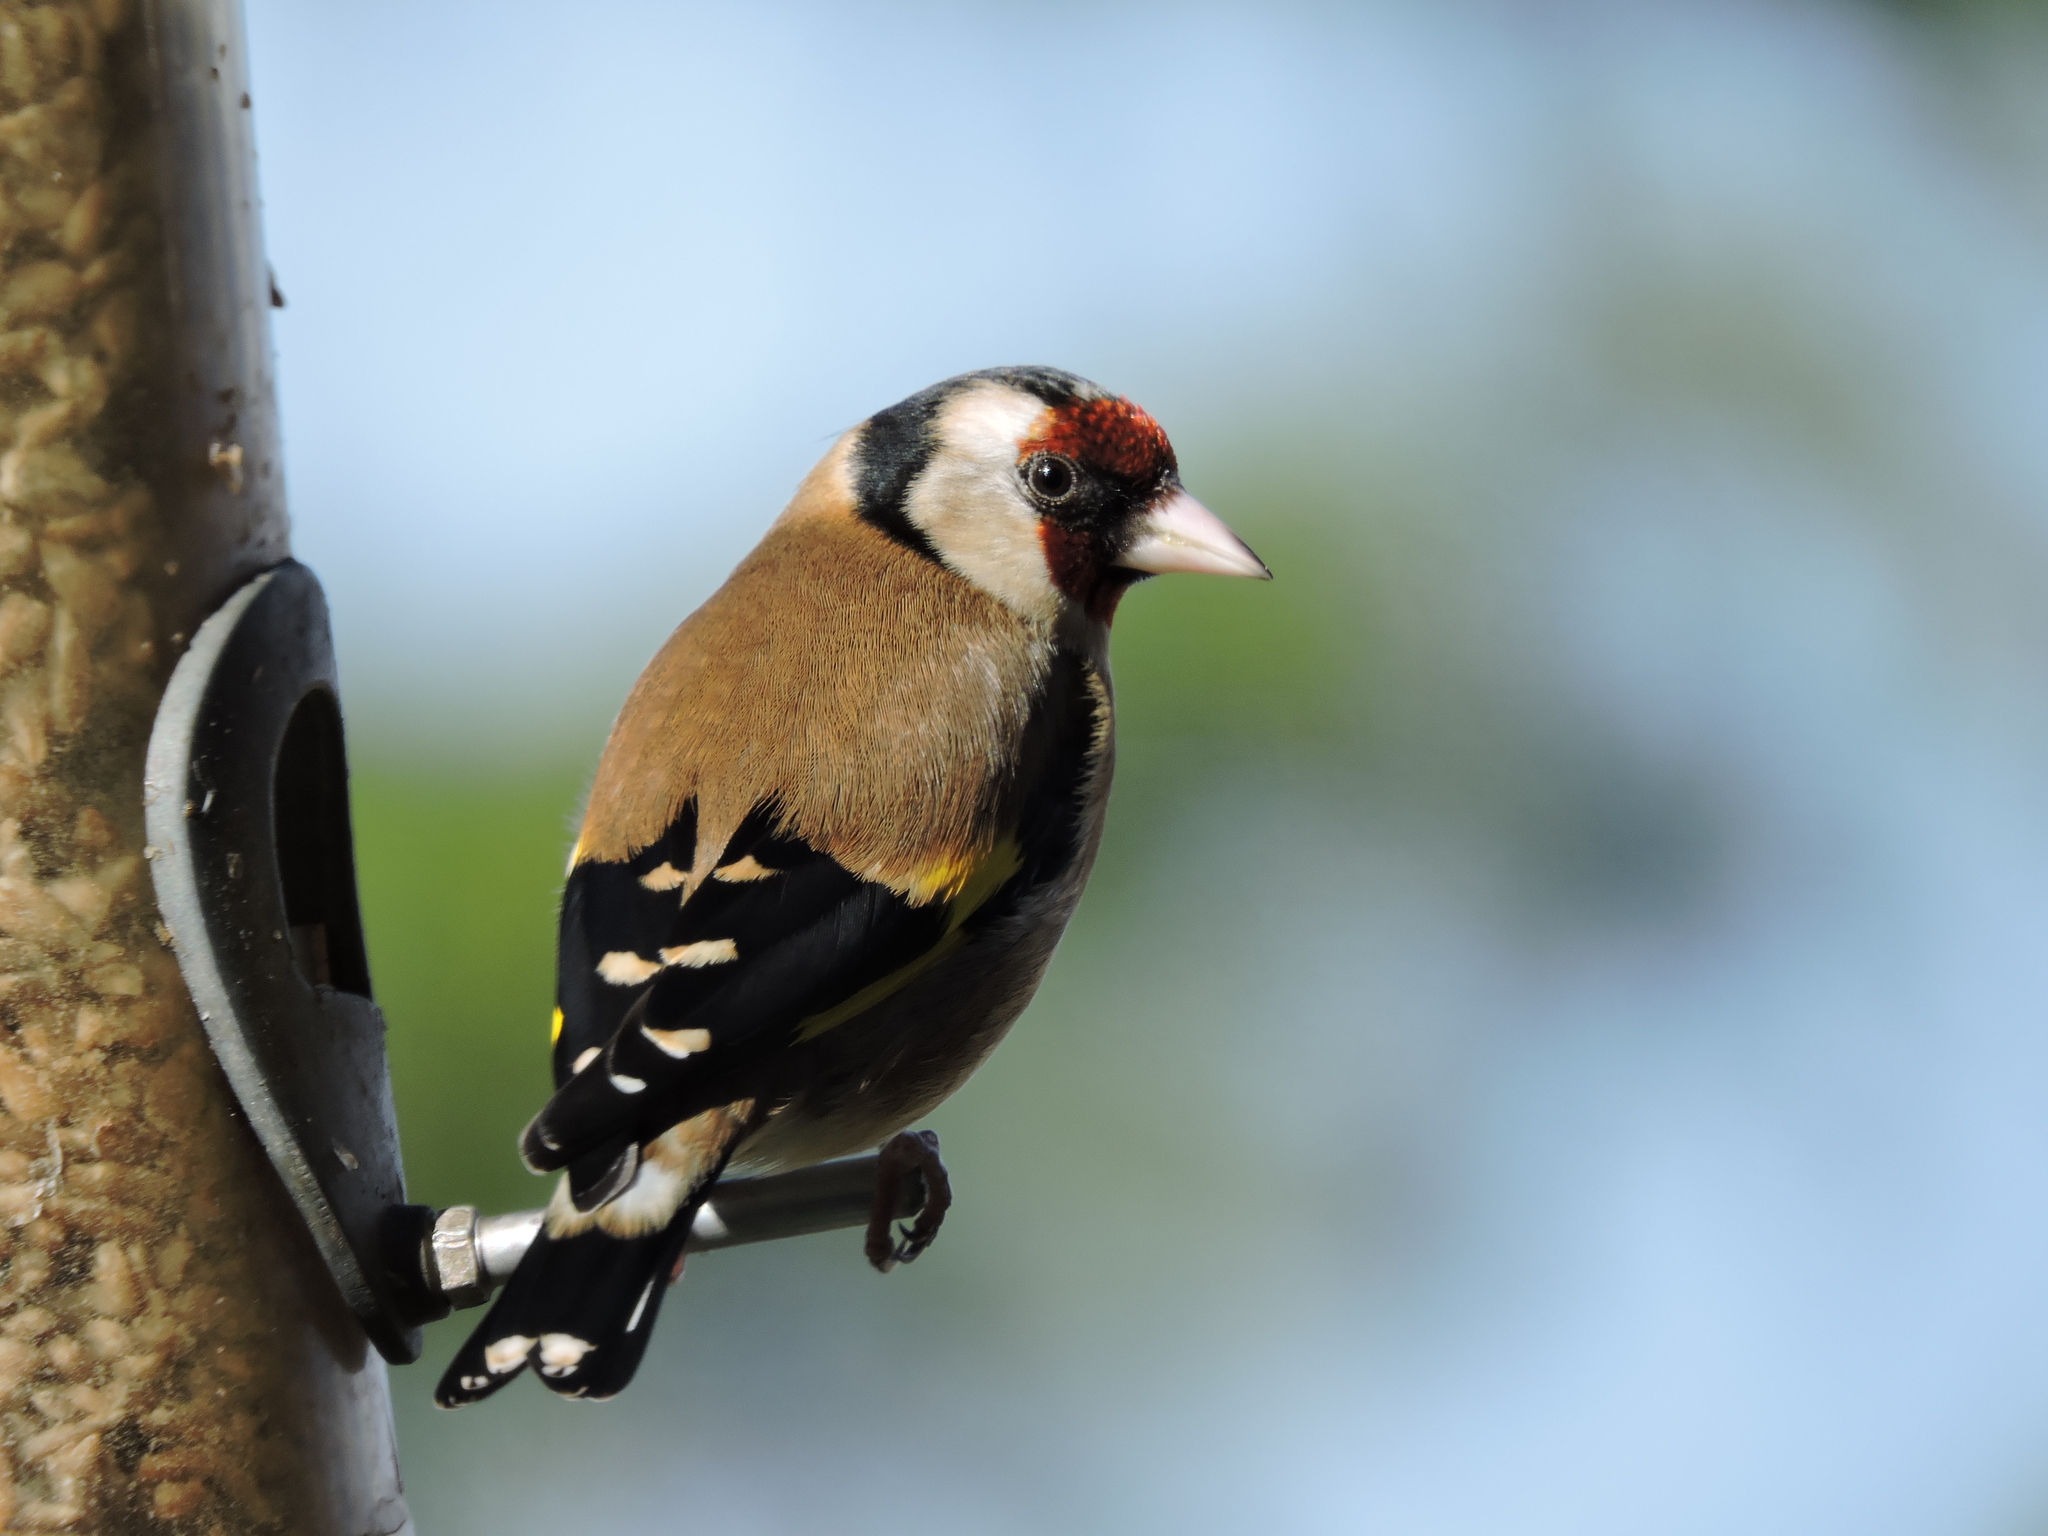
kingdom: Animalia
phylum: Chordata
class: Aves
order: Passeriformes
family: Fringillidae
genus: Carduelis
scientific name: Carduelis carduelis
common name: European goldfinch
